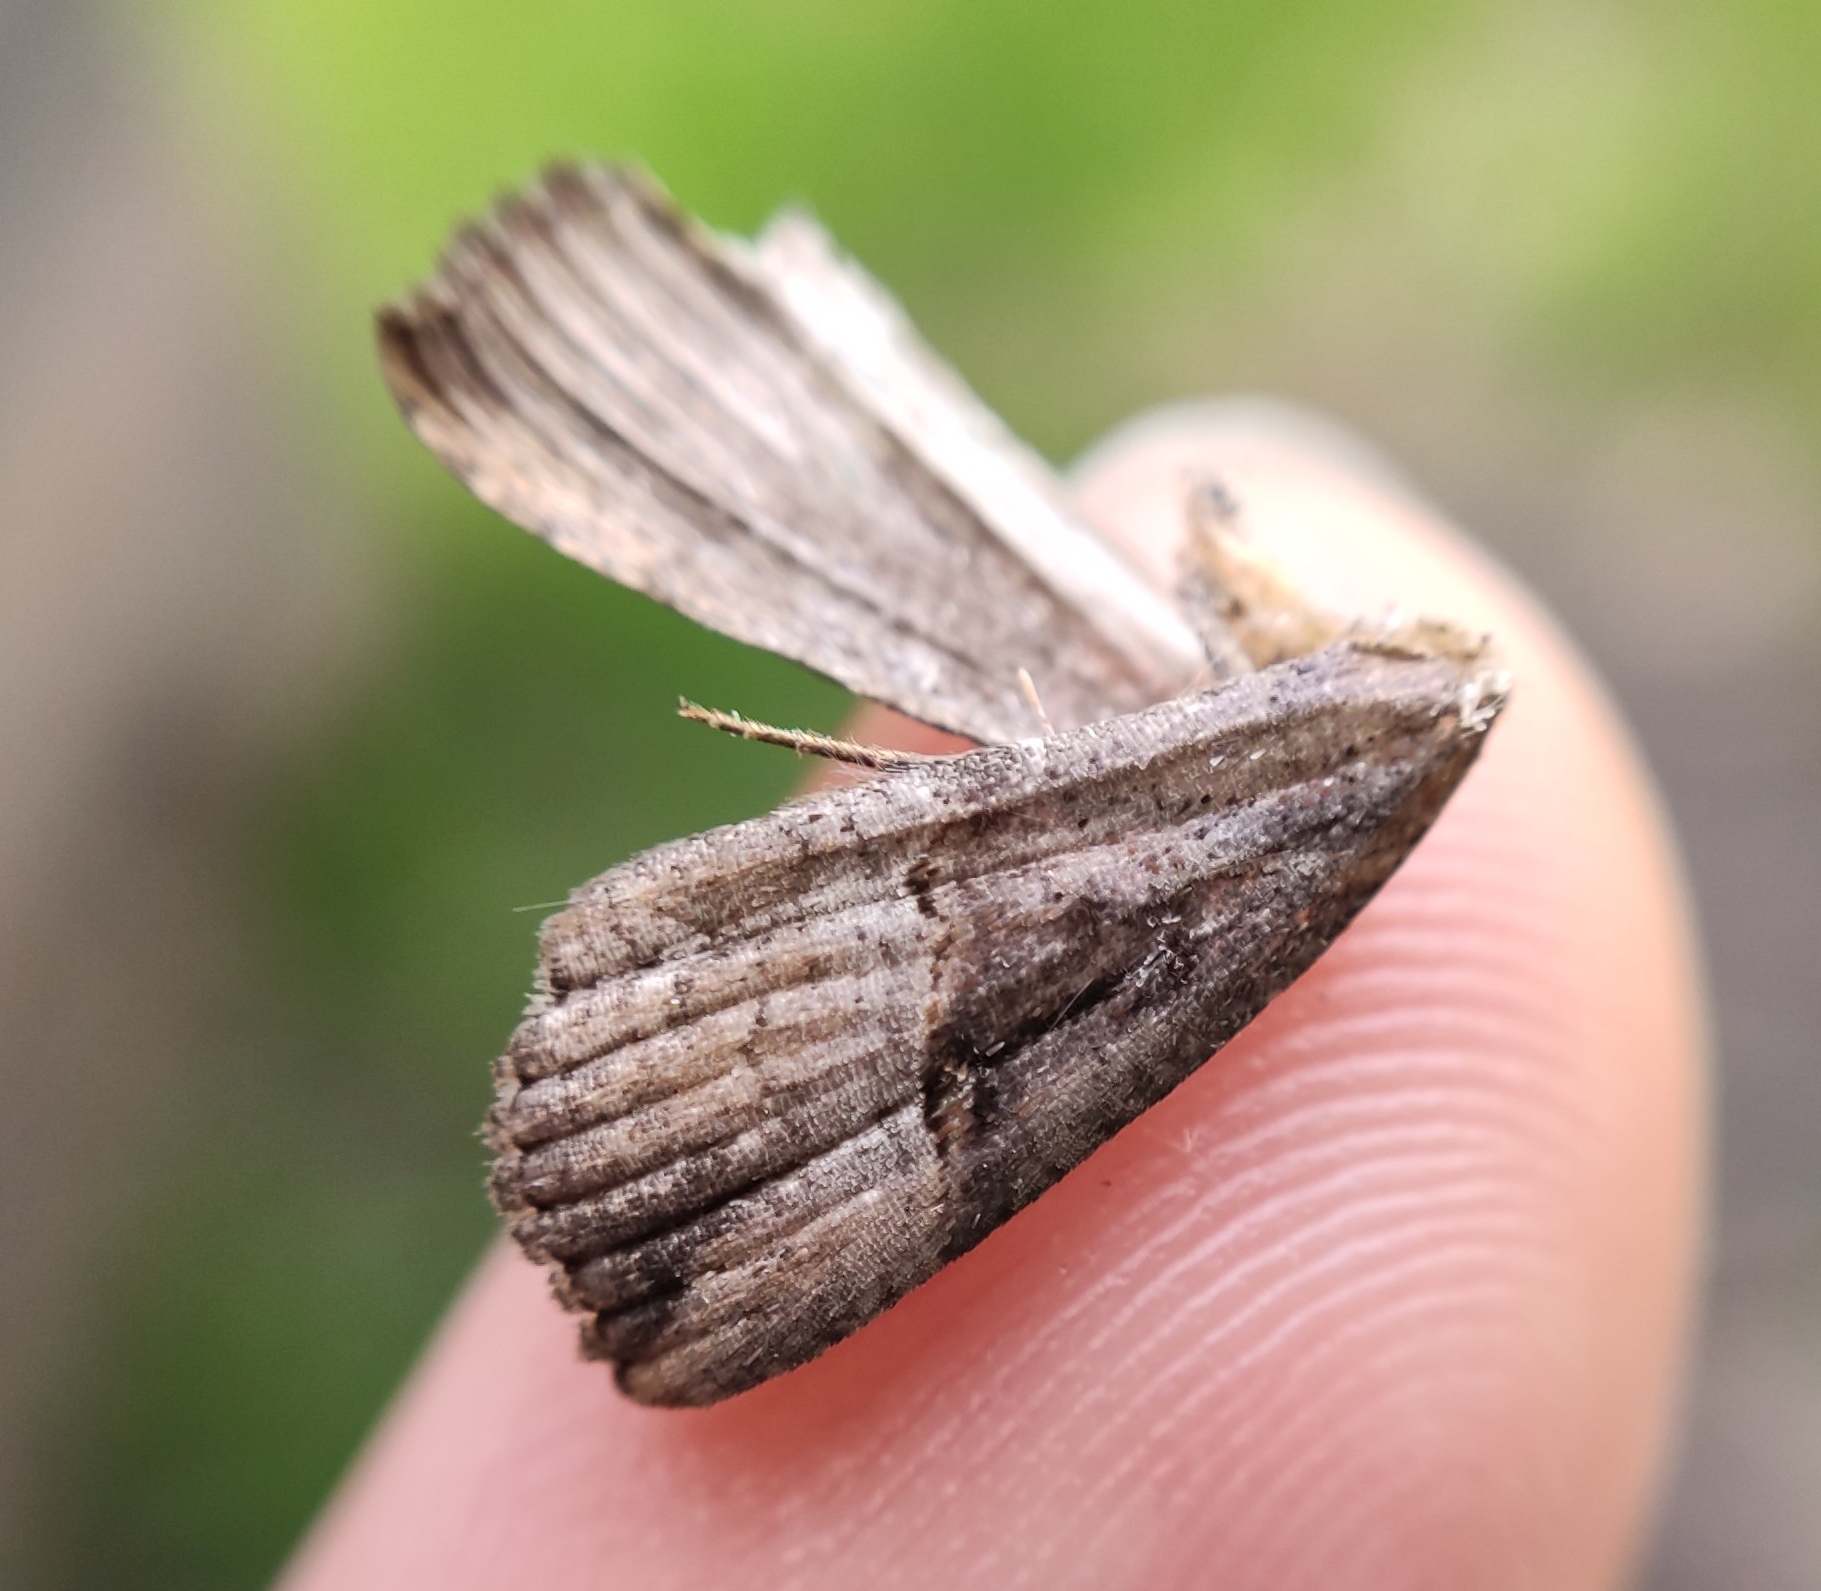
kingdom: Animalia
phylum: Arthropoda
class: Insecta
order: Lepidoptera
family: Erebidae
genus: Hypena
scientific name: Hypena rostralis
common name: Buttoned snout
